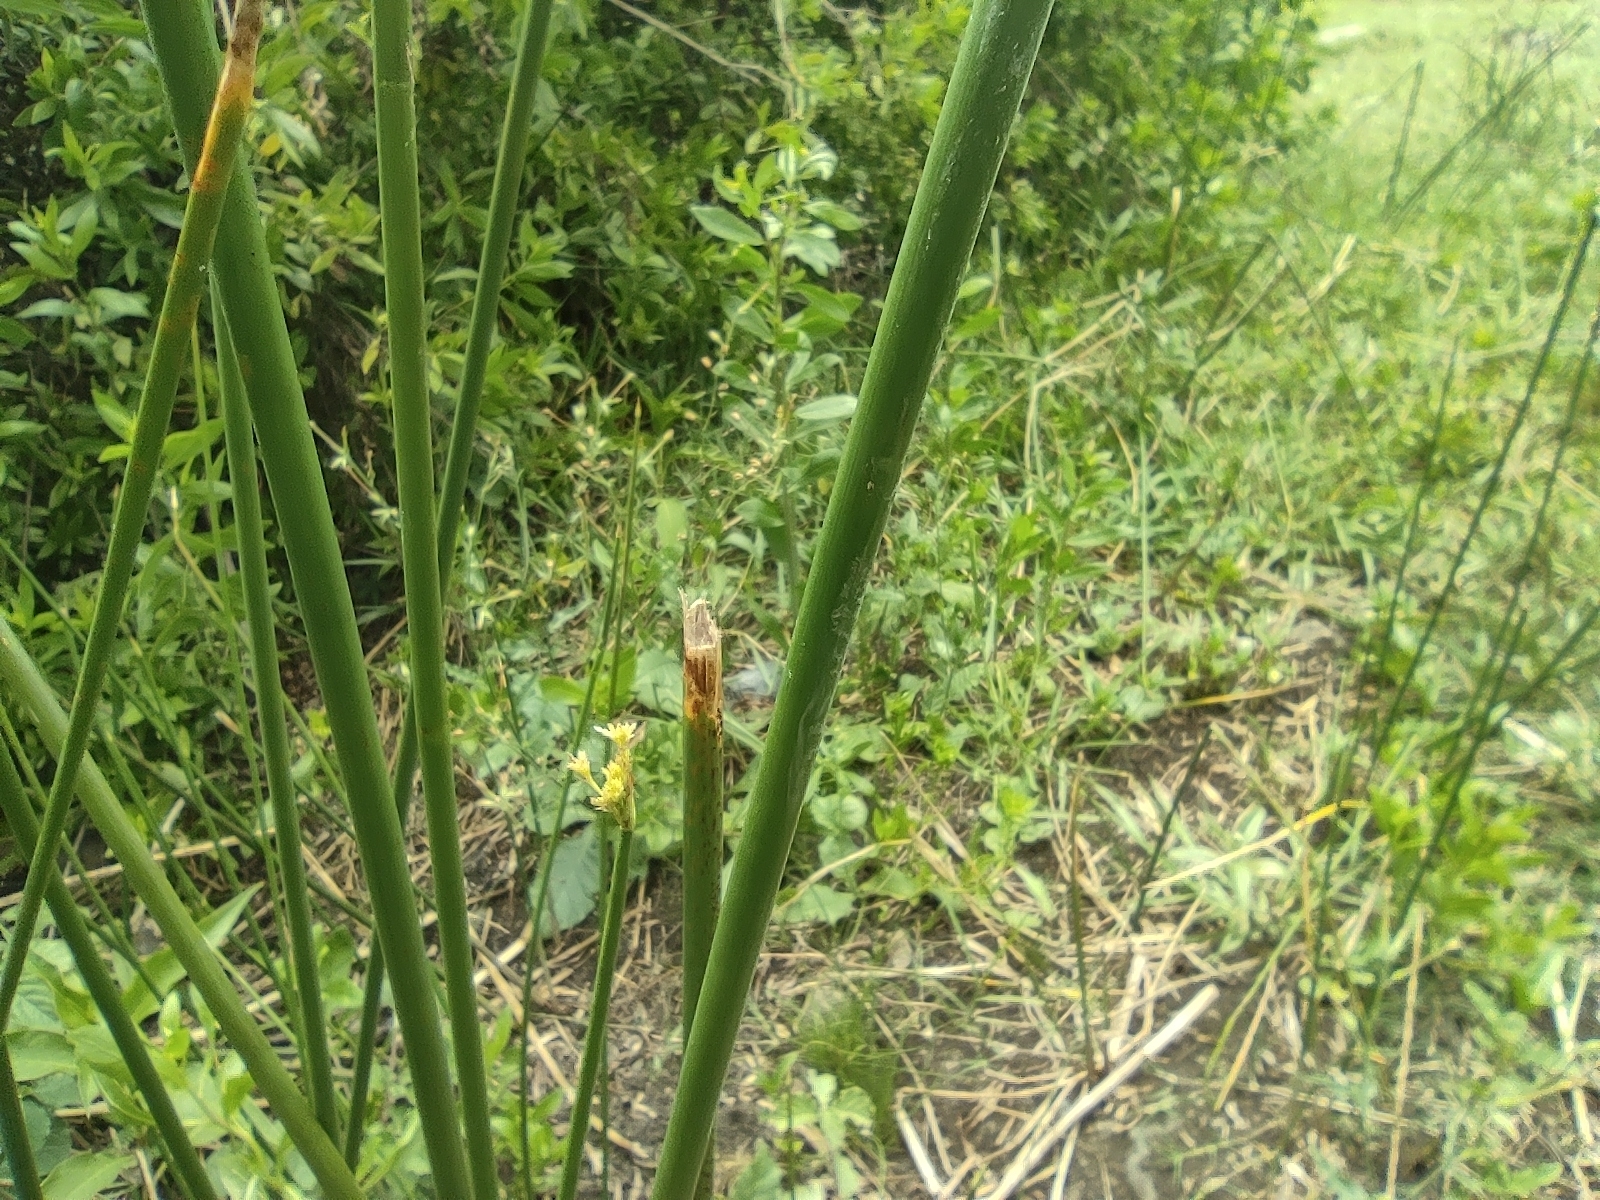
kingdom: Plantae
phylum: Tracheophyta
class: Liliopsida
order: Poales
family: Cyperaceae
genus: Cyperus
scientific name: Cyperus articulatus
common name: Jointed flatsedge
